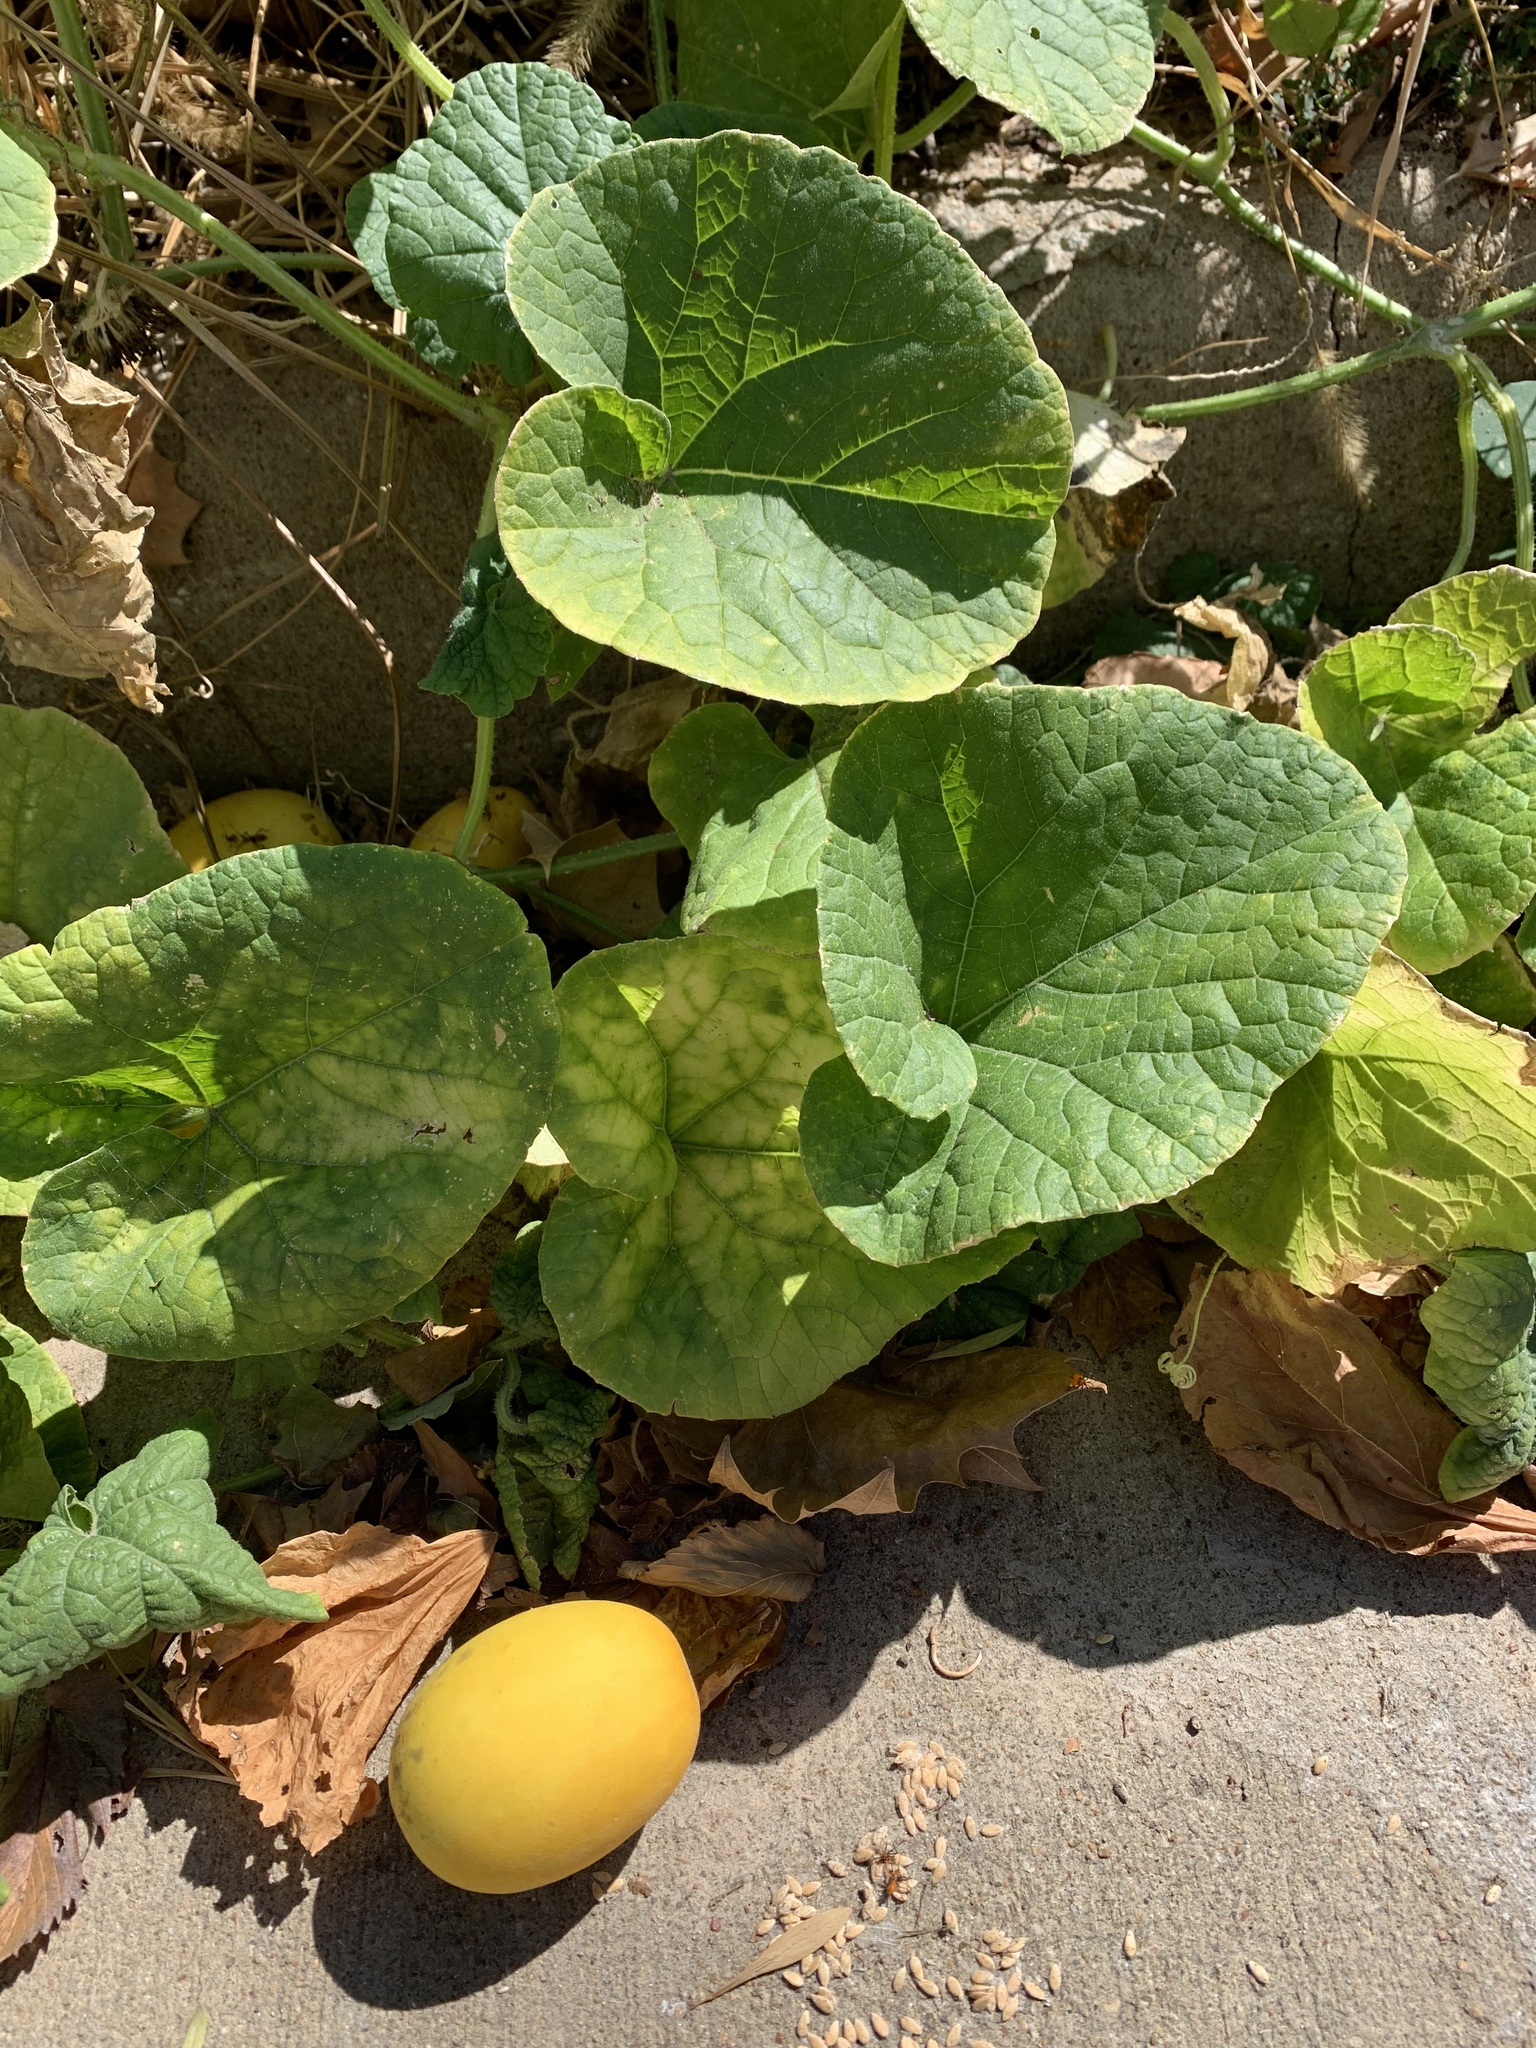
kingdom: Plantae
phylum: Tracheophyta
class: Magnoliopsida
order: Cucurbitales
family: Cucurbitaceae
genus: Cucumis
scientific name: Cucumis melo
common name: Melon
